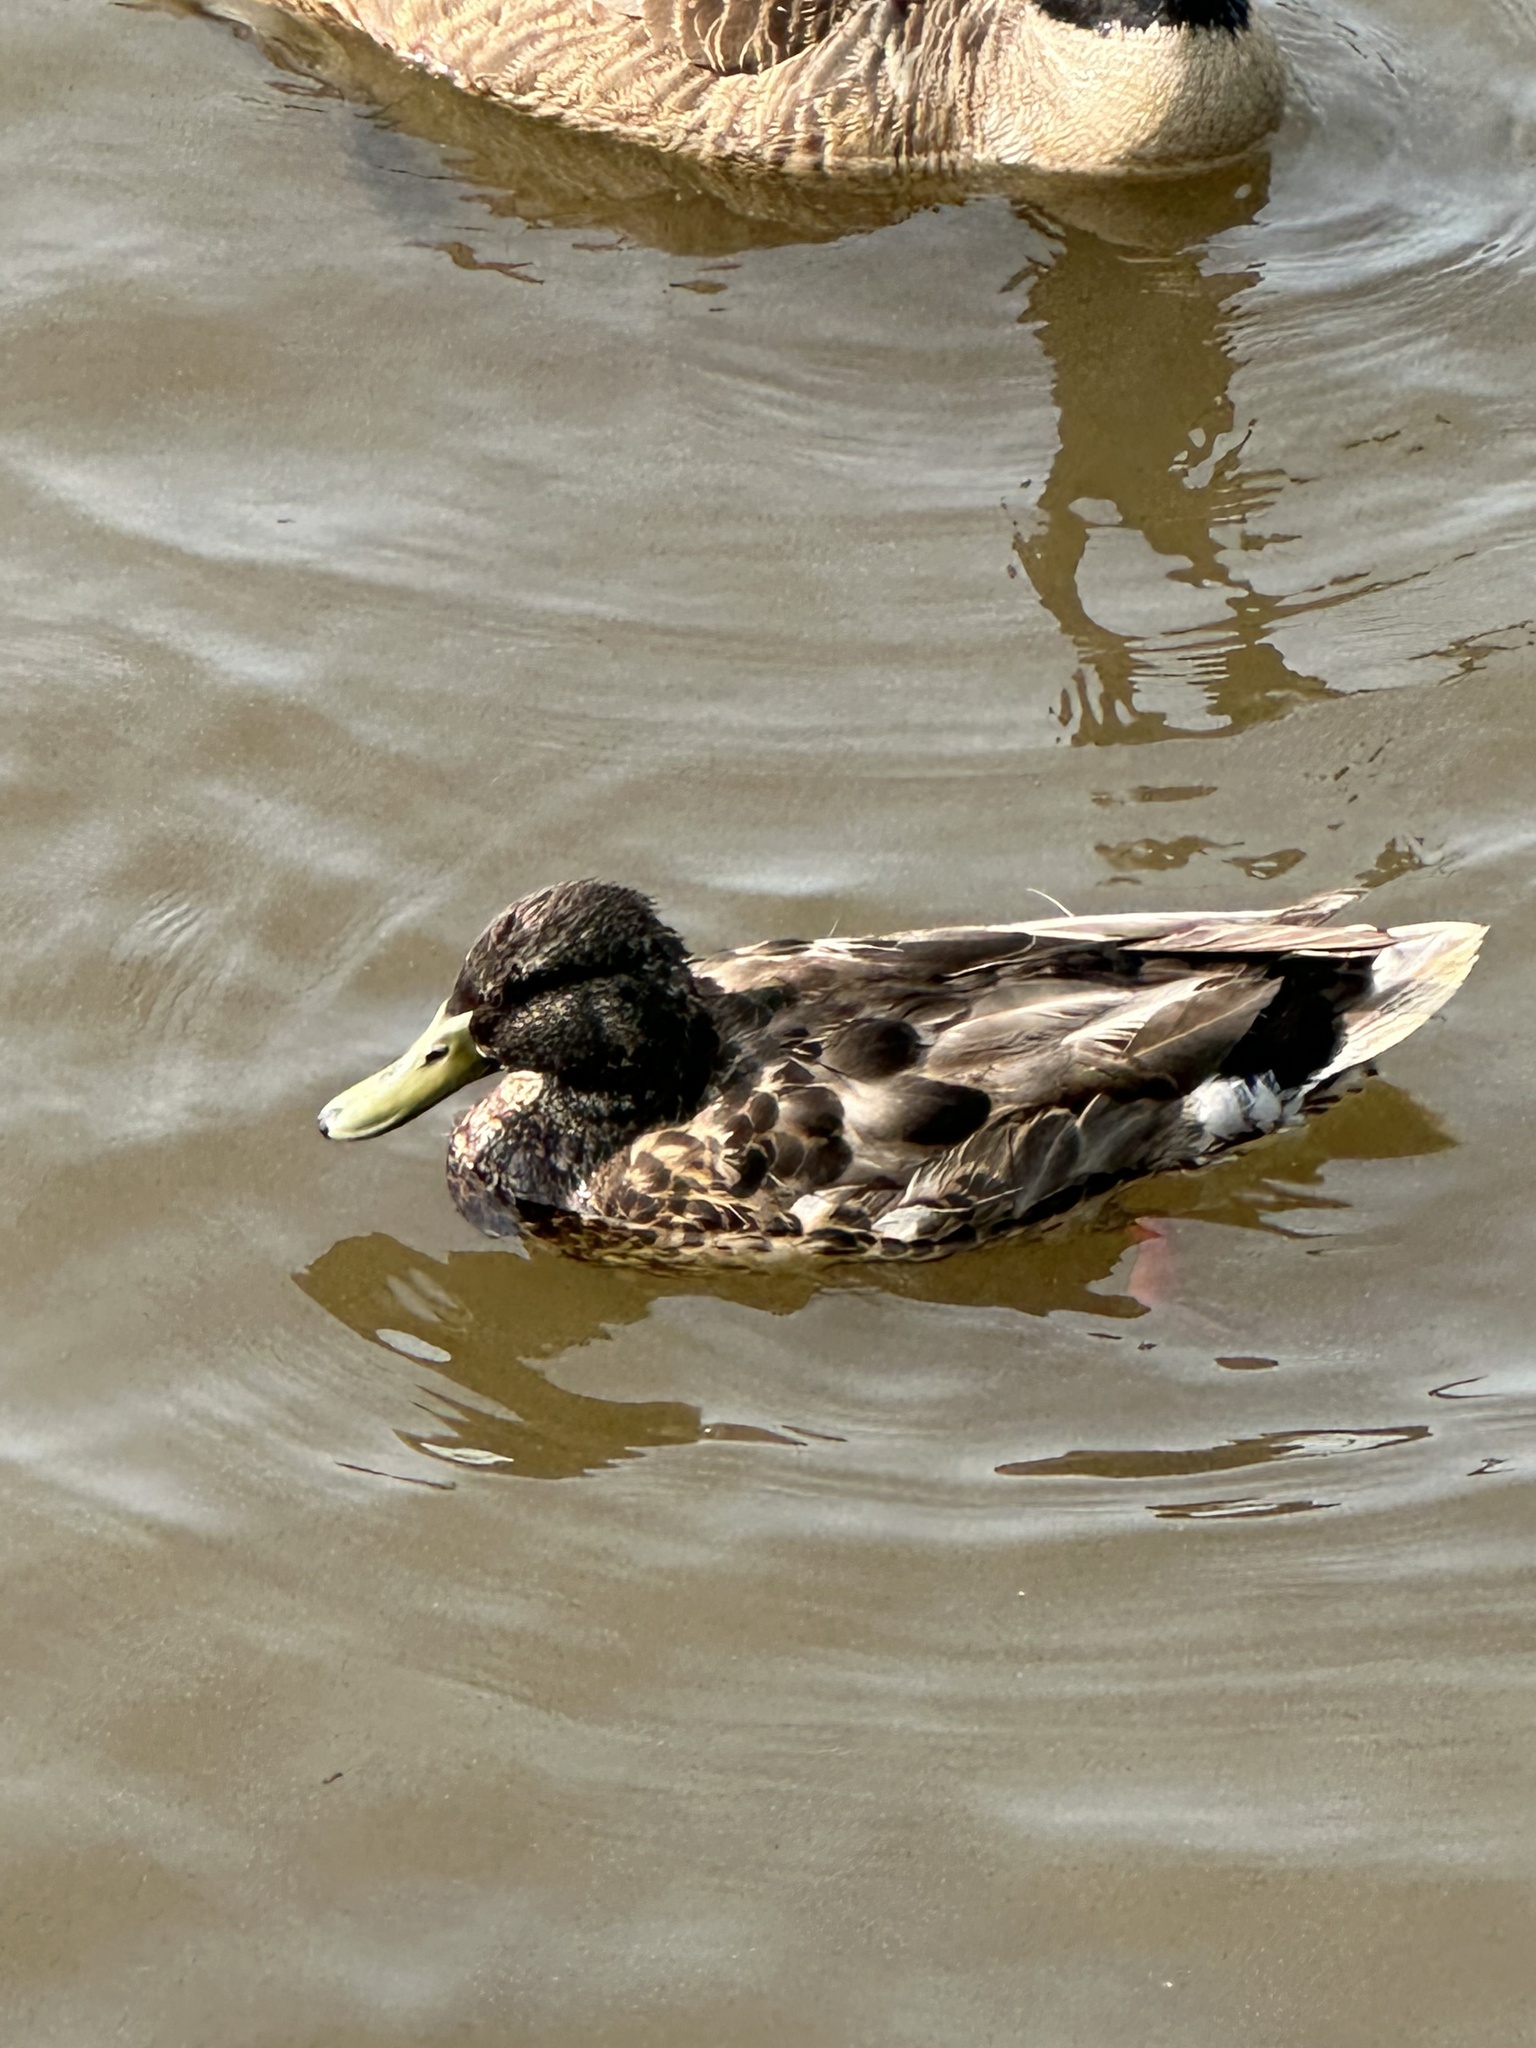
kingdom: Animalia
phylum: Chordata
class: Aves
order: Anseriformes
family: Anatidae
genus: Anas
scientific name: Anas platyrhynchos
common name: Mallard
